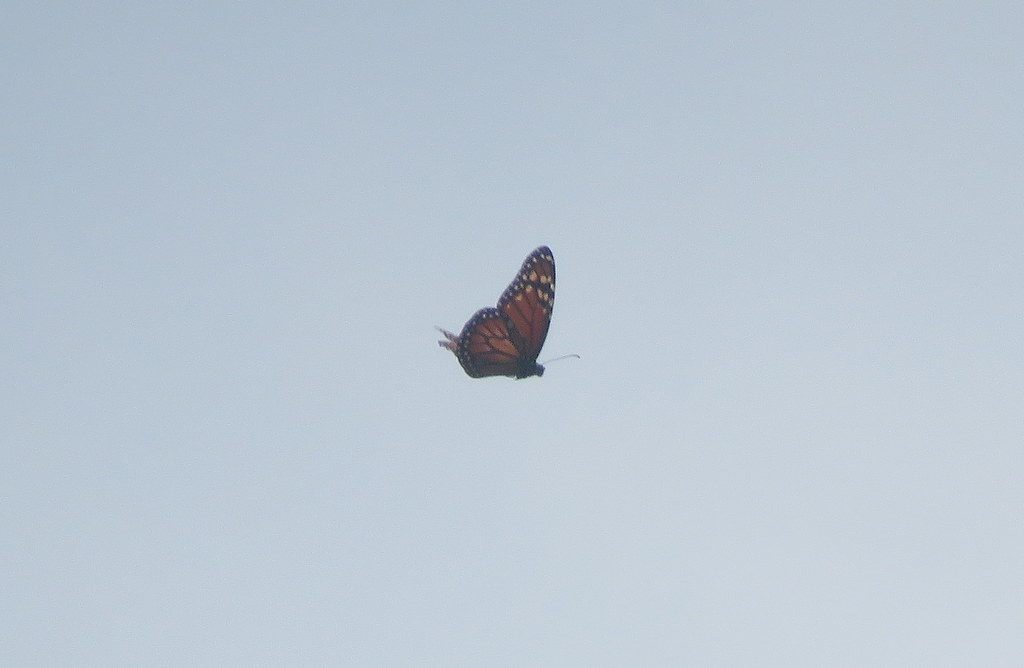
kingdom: Animalia
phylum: Arthropoda
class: Insecta
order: Lepidoptera
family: Nymphalidae
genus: Danaus
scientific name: Danaus erippus
